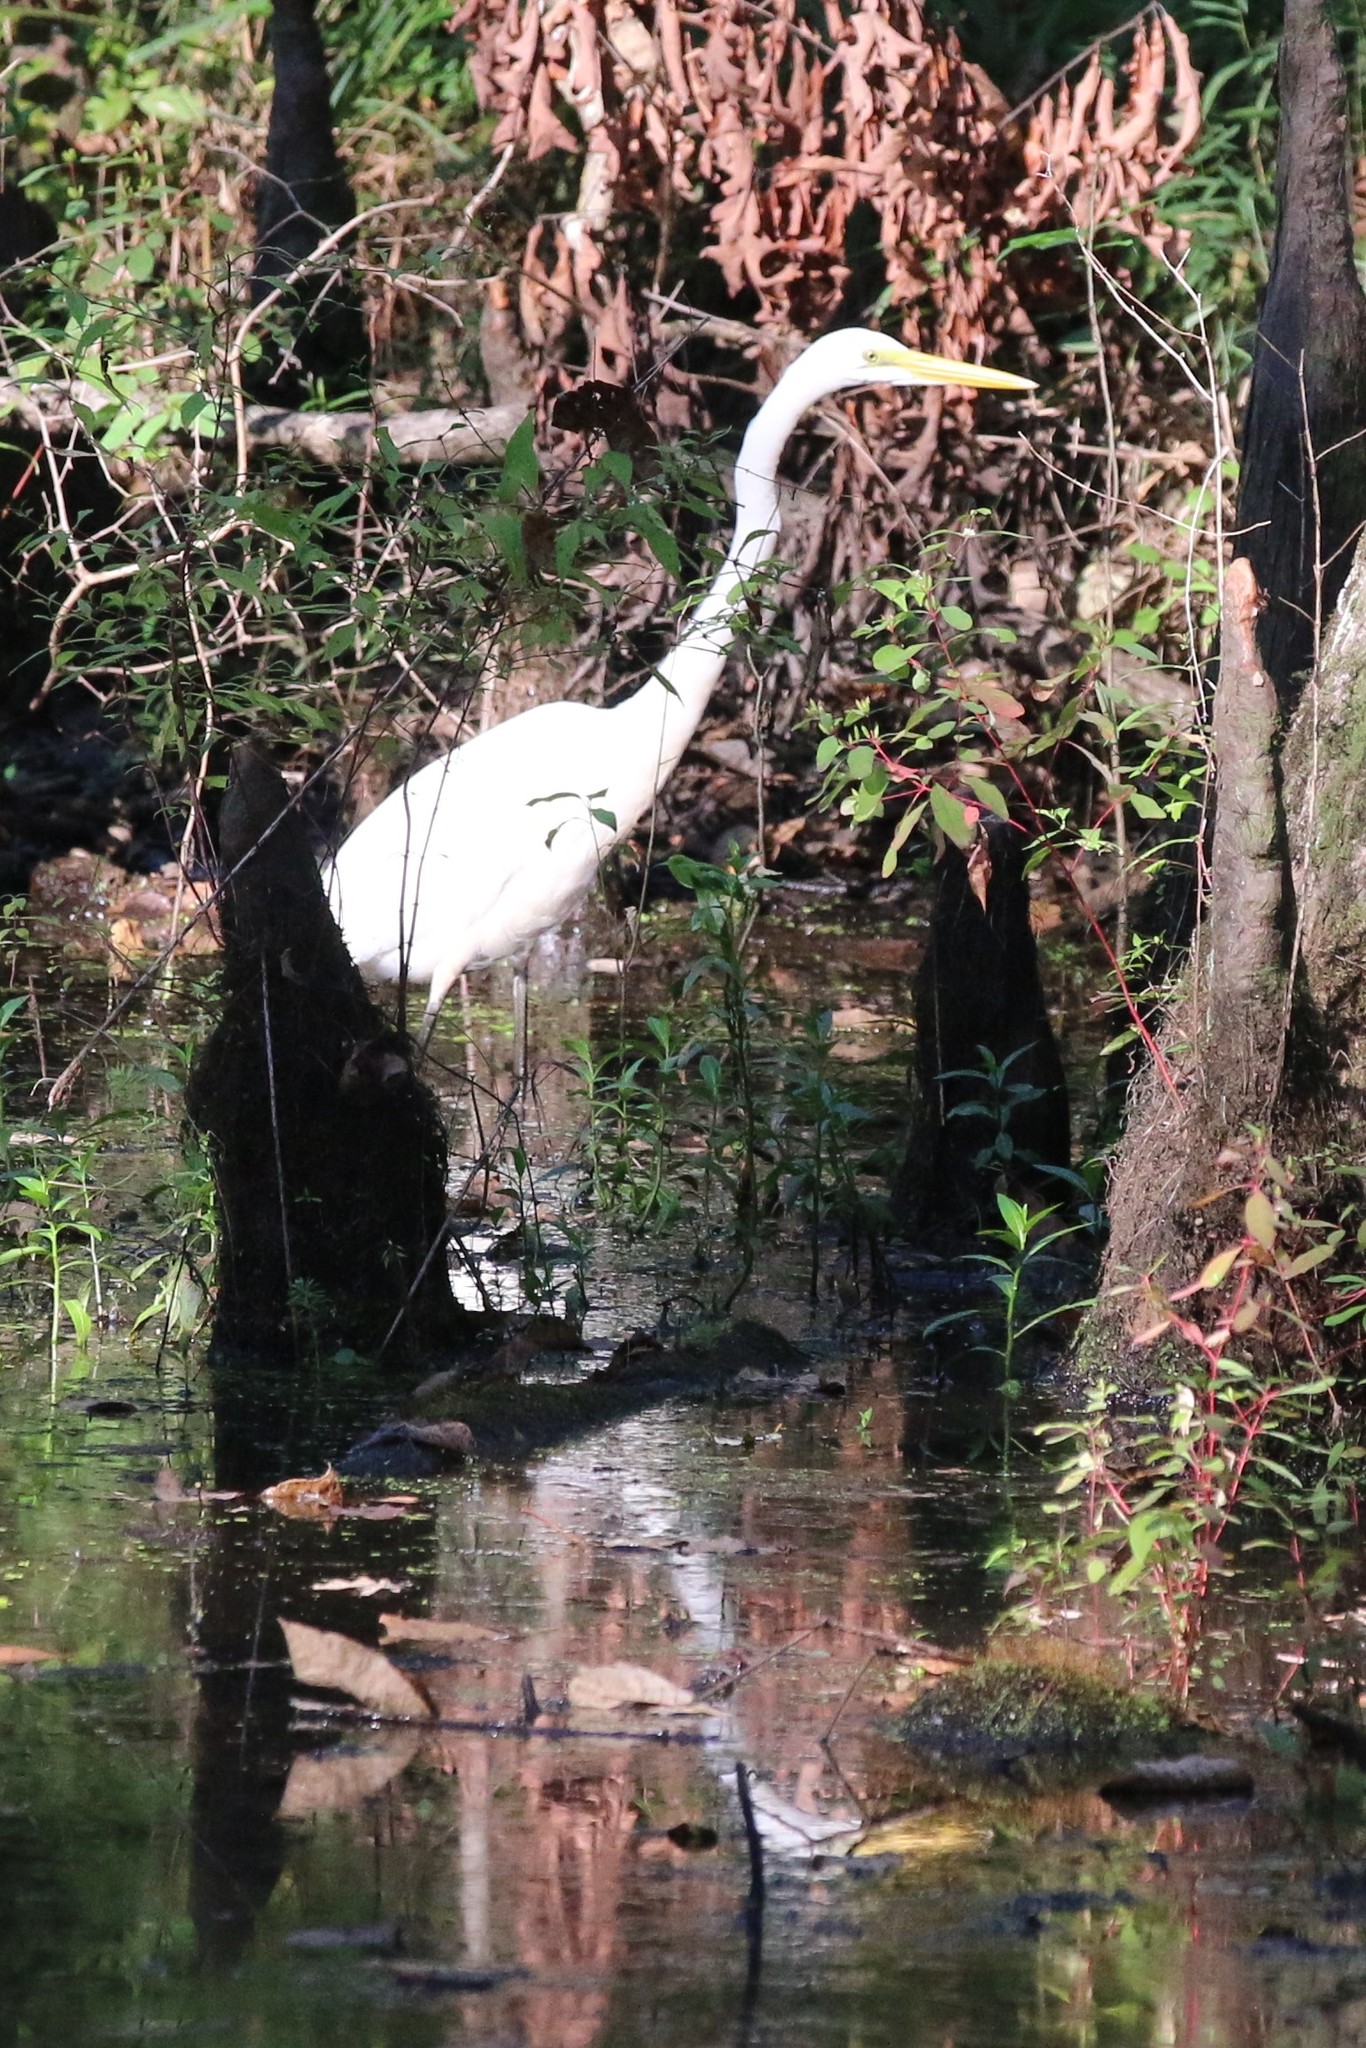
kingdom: Animalia
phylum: Chordata
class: Aves
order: Pelecaniformes
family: Ardeidae
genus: Ardea
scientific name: Ardea alba
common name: Great egret
